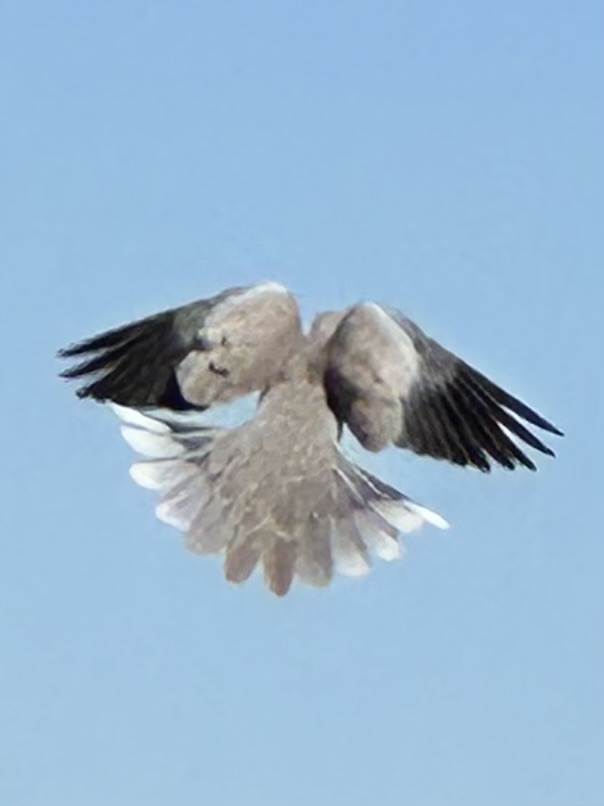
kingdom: Animalia
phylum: Chordata
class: Aves
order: Columbiformes
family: Columbidae
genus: Streptopelia
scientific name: Streptopelia decaocto
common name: Eurasian collared dove
